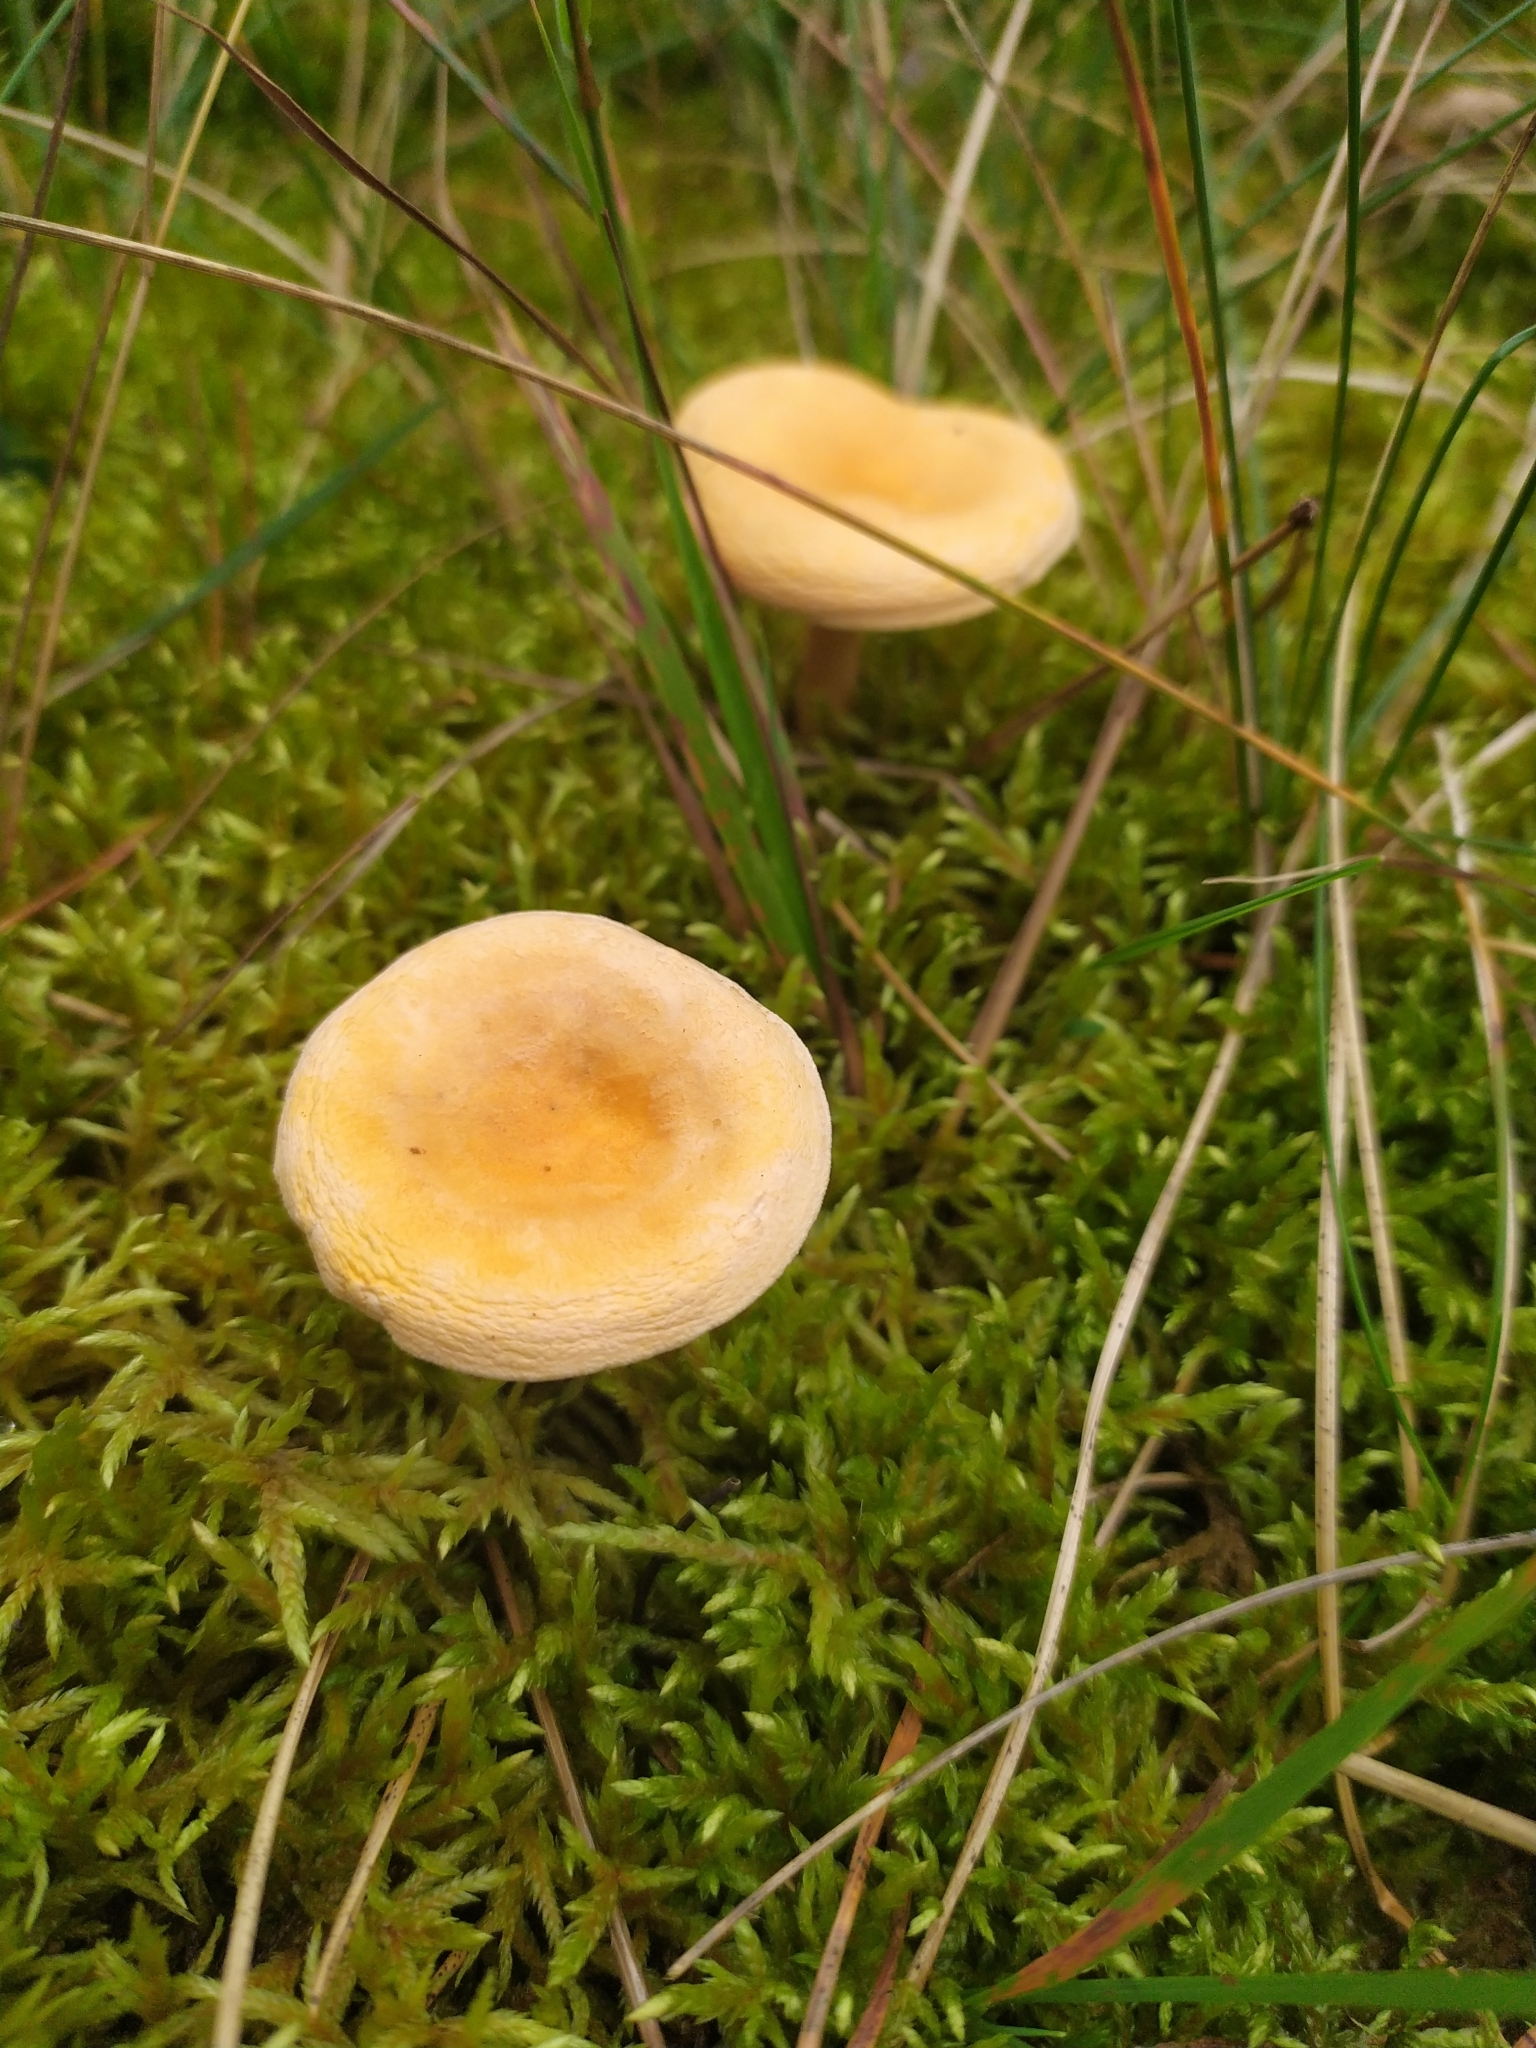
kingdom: Fungi
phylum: Basidiomycota
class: Agaricomycetes
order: Boletales
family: Hygrophoropsidaceae
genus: Hygrophoropsis
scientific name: Hygrophoropsis aurantiaca
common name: False chanterelle
